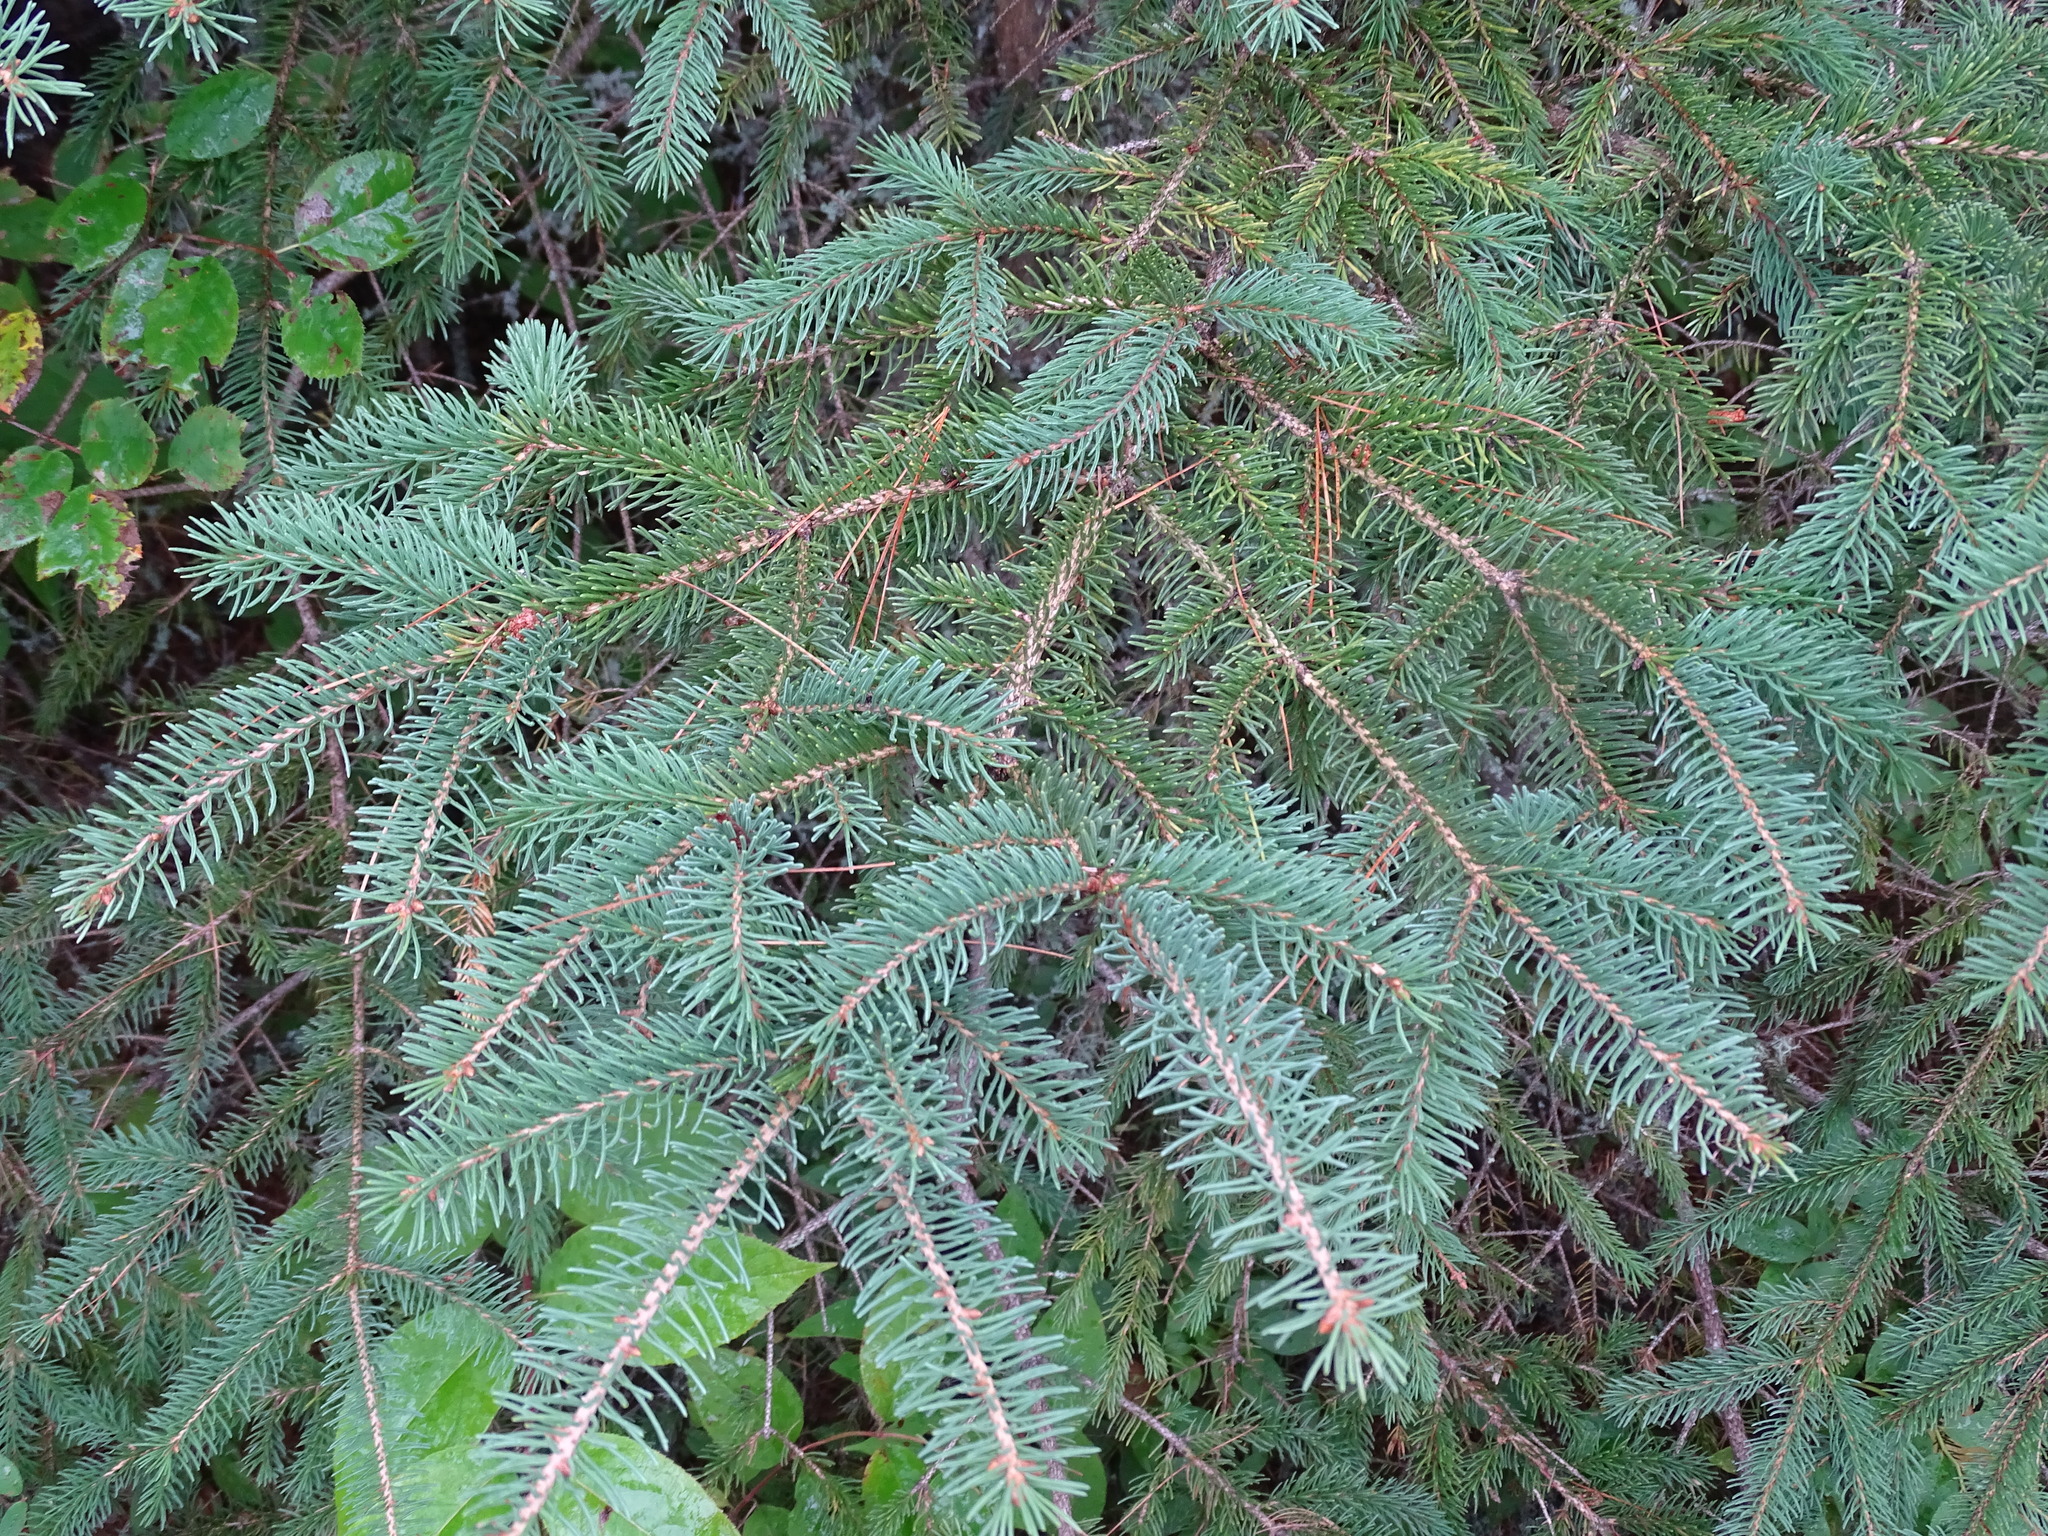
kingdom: Plantae
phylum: Tracheophyta
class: Pinopsida
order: Pinales
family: Pinaceae
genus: Picea
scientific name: Picea glauca
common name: White spruce
